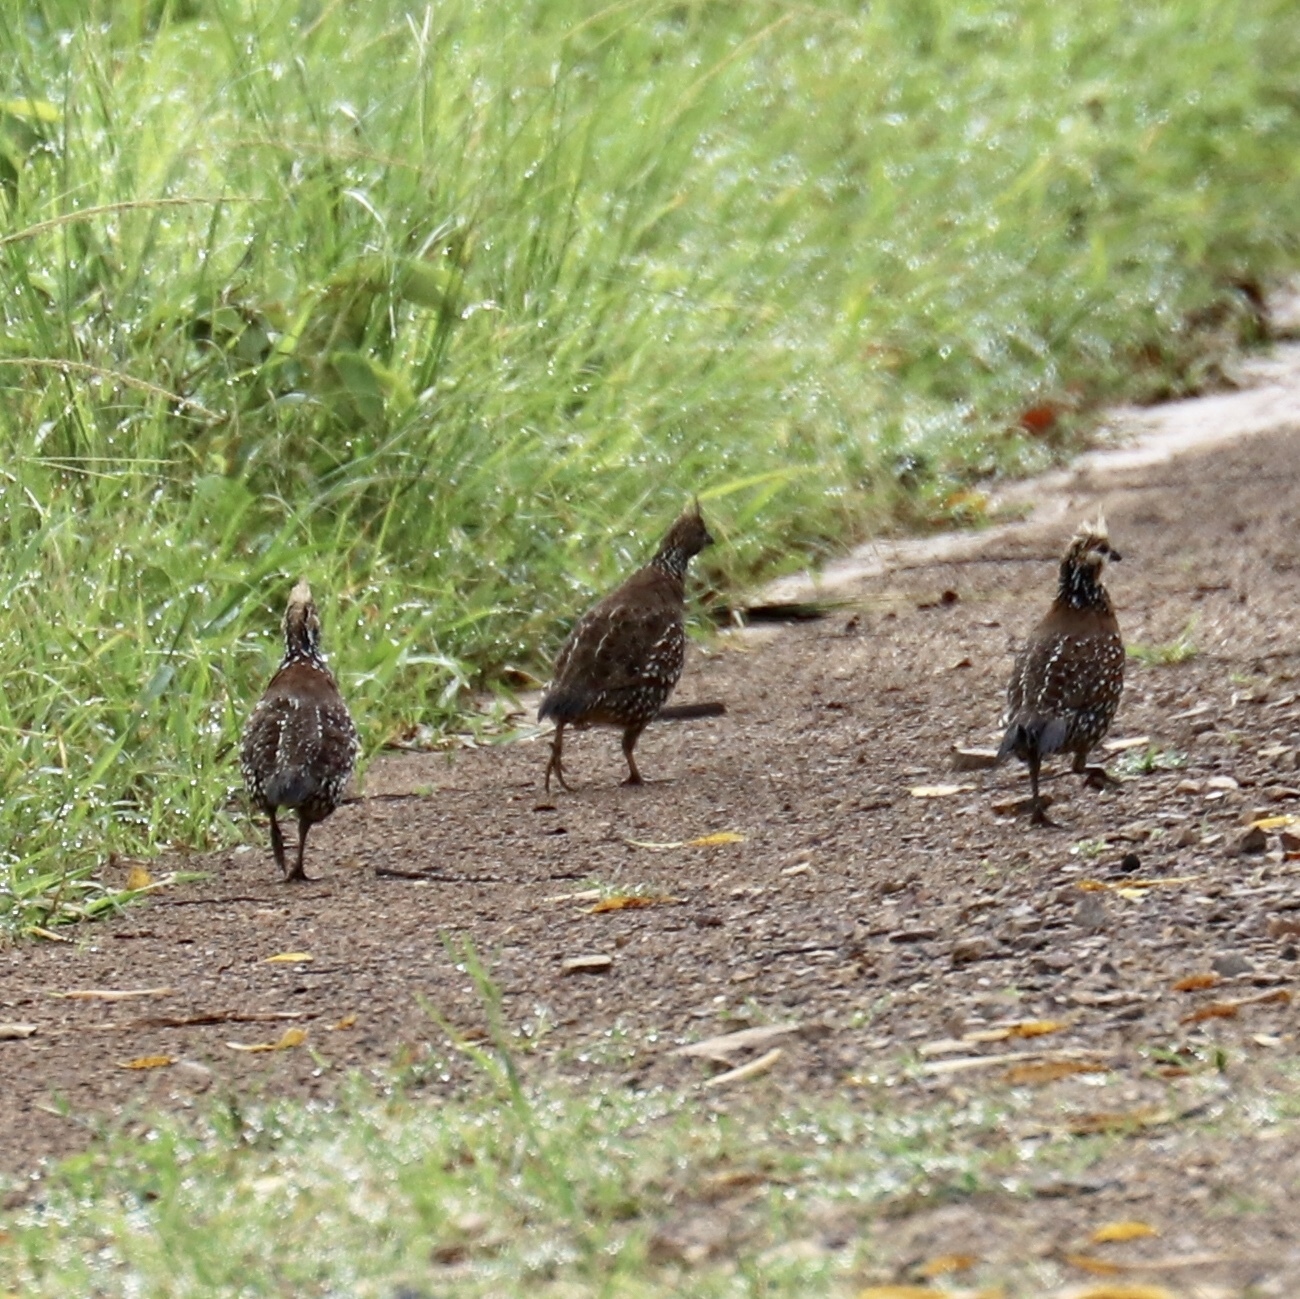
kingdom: Animalia
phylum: Chordata
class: Aves
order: Galliformes
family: Odontophoridae
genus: Colinus
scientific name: Colinus cristatus
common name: Crested bobwhite
